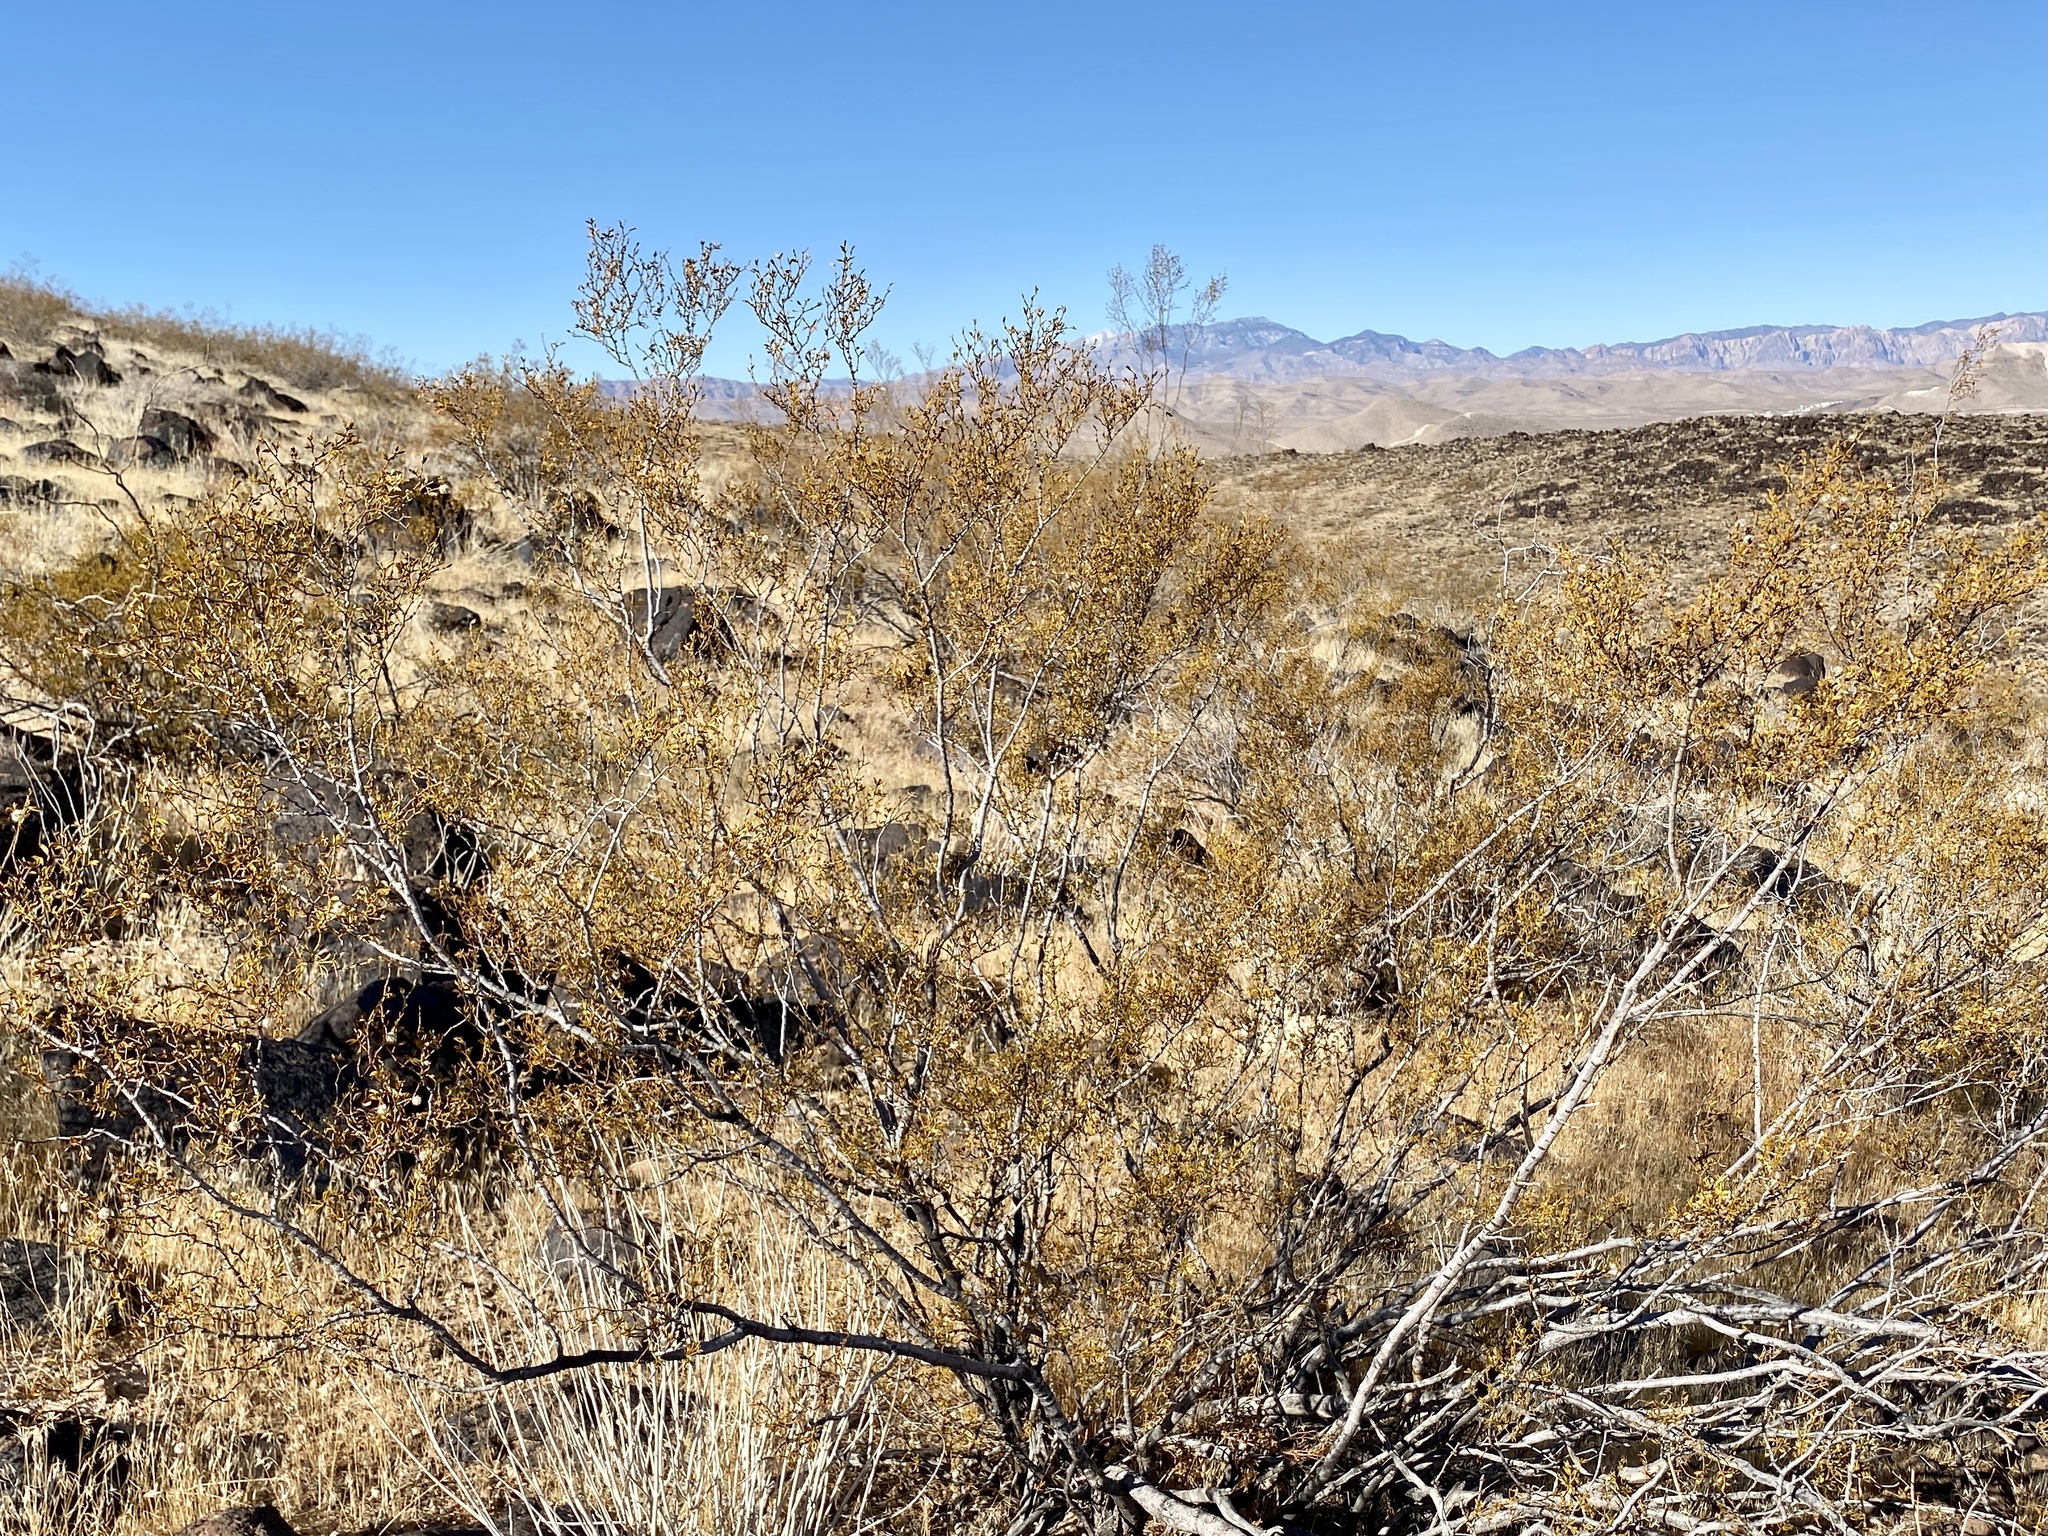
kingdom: Plantae
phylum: Tracheophyta
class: Magnoliopsida
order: Zygophyllales
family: Zygophyllaceae
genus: Larrea
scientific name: Larrea tridentata
